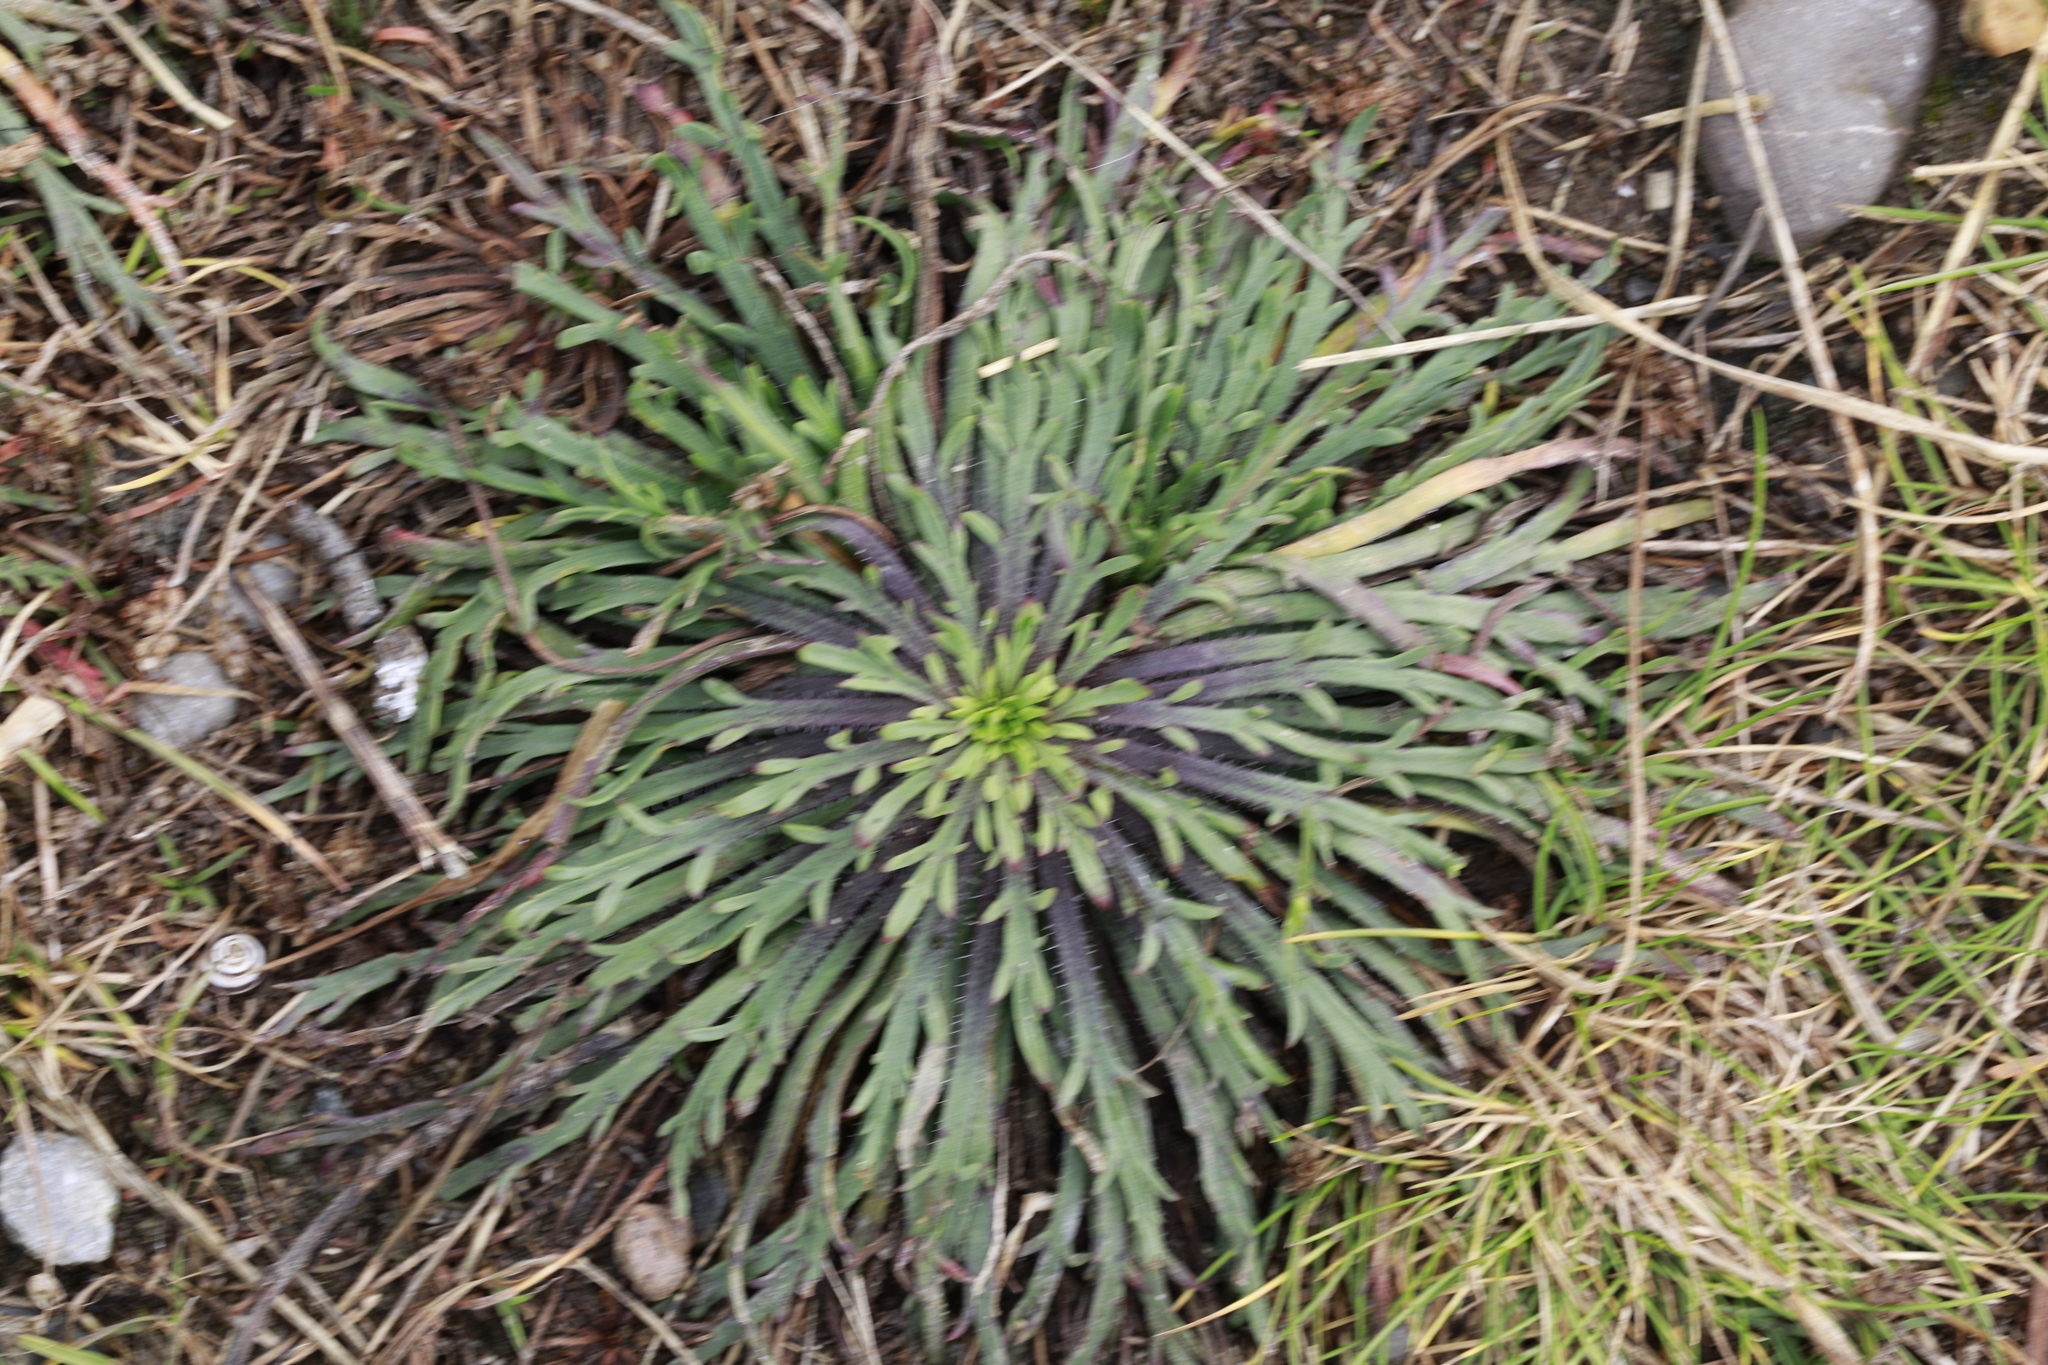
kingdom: Plantae
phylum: Tracheophyta
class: Magnoliopsida
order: Lamiales
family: Plantaginaceae
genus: Plantago
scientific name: Plantago coronopus
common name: Buck's-horn plantain
